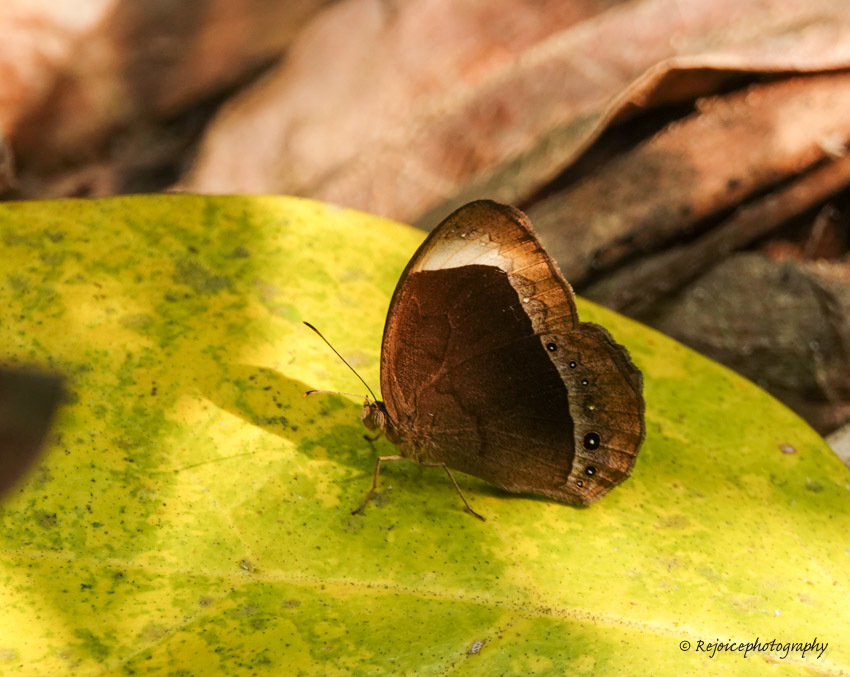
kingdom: Animalia
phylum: Arthropoda
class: Insecta
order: Lepidoptera
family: Nymphalidae
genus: Mycalesis
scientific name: Mycalesis anaxias
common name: White-bar bushbrown
